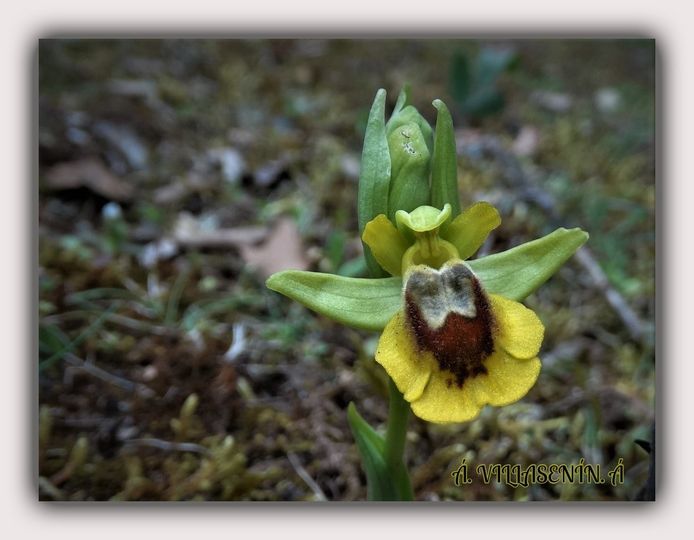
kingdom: Plantae
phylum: Tracheophyta
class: Liliopsida
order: Asparagales
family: Orchidaceae
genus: Ophrys
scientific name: Ophrys lutea
